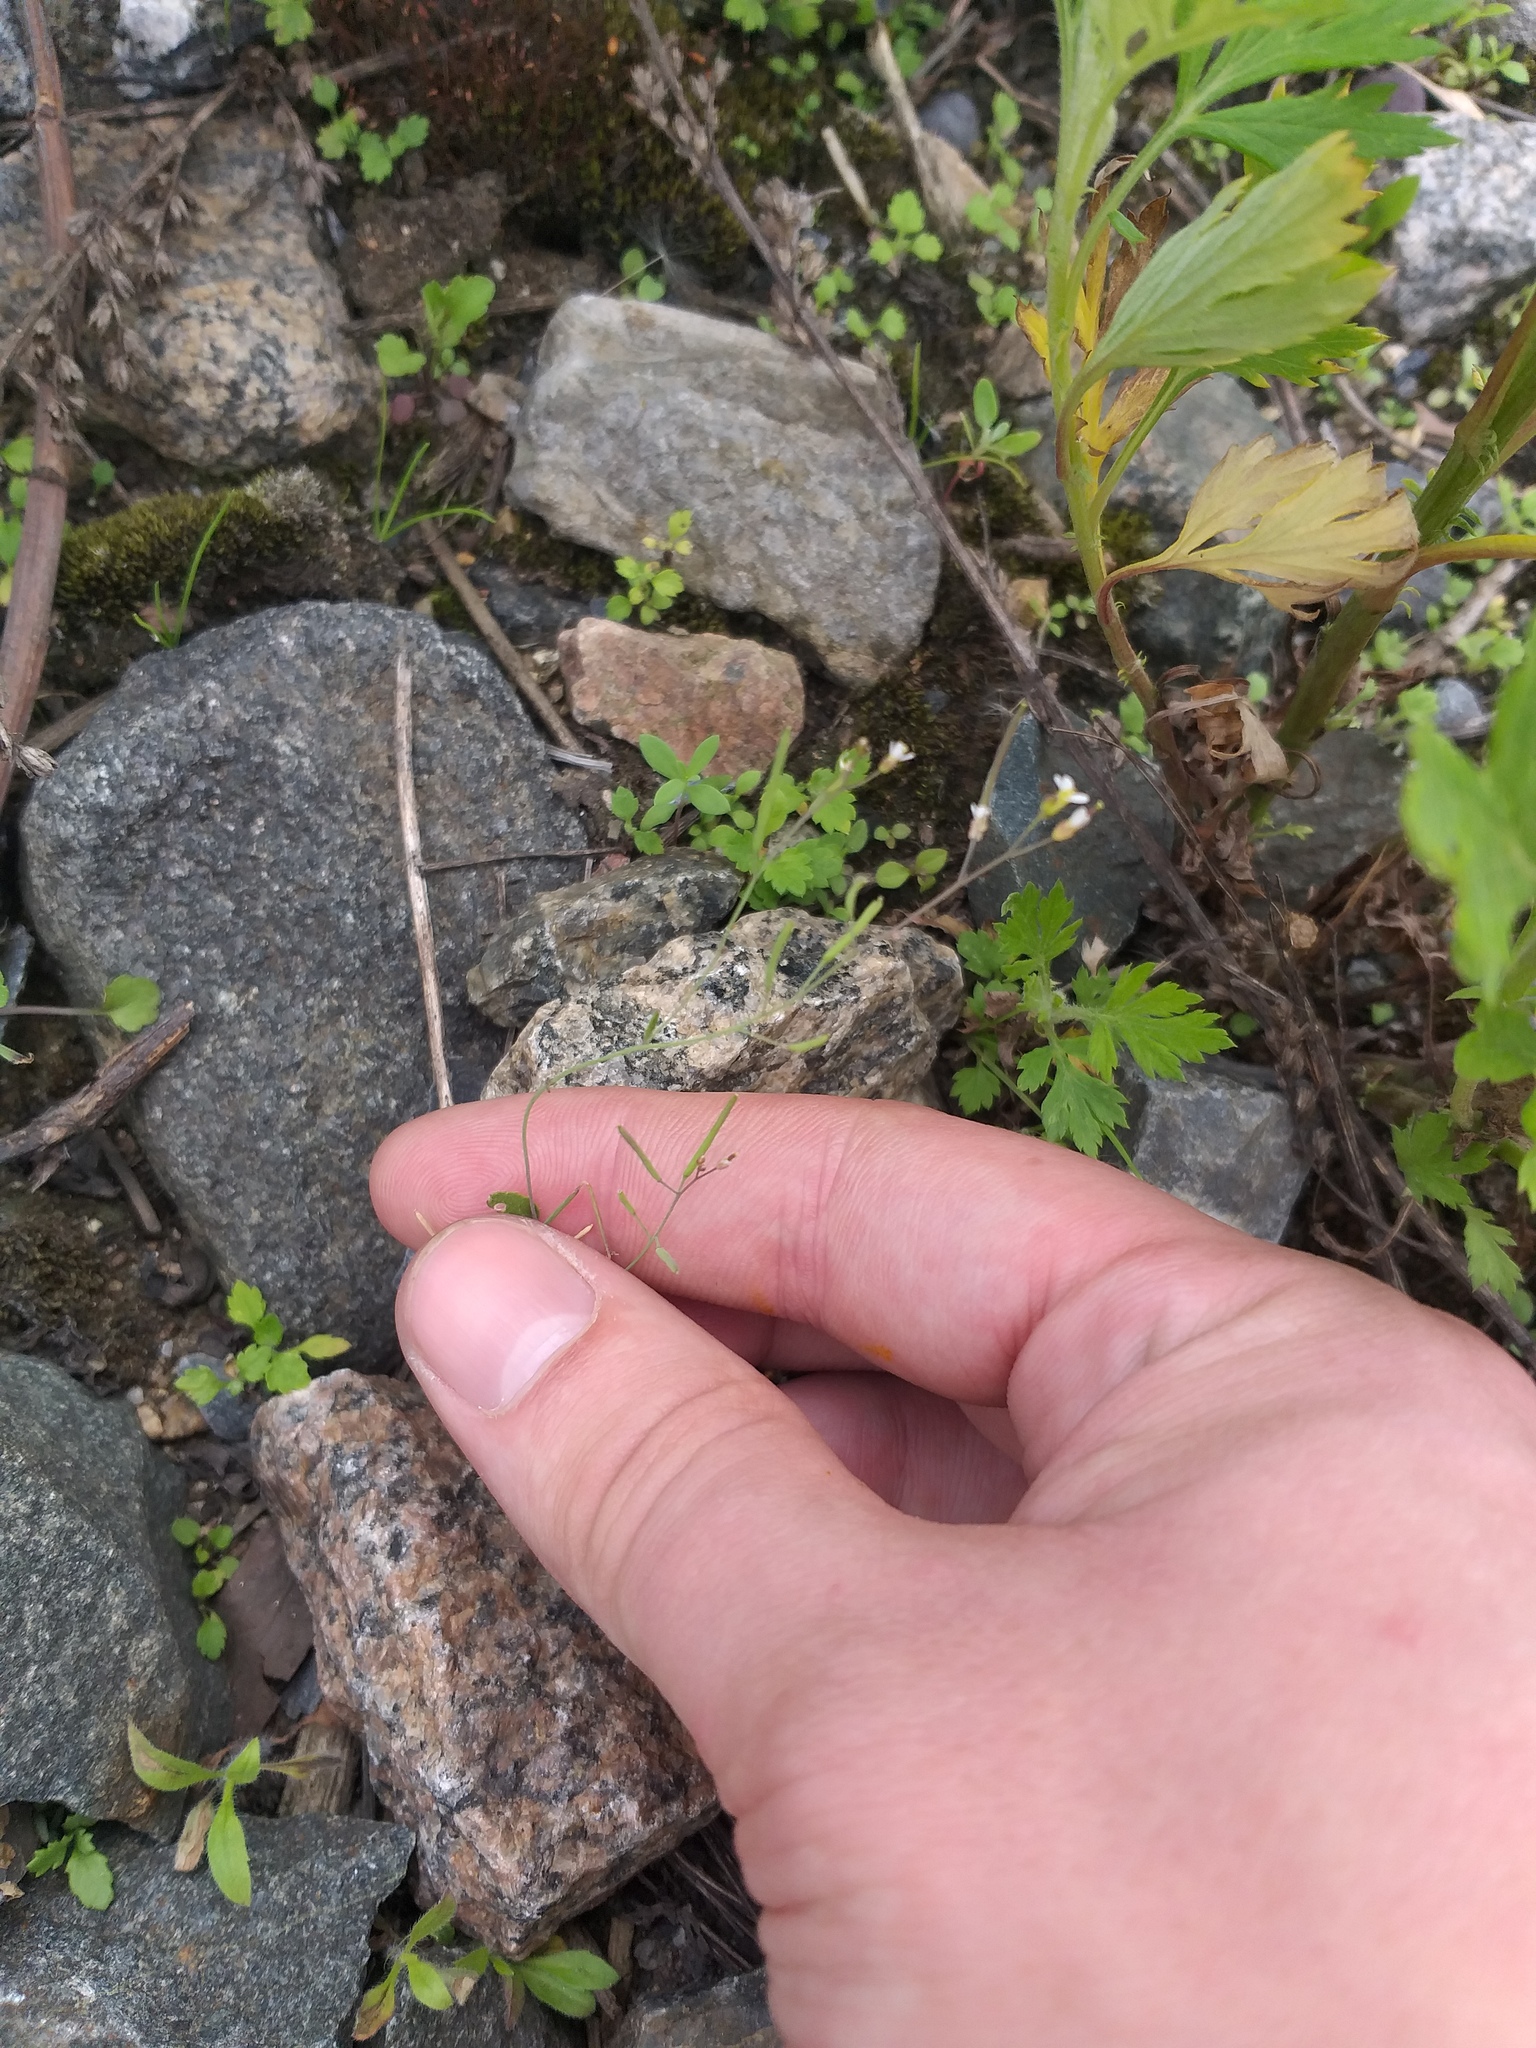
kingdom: Plantae
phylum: Tracheophyta
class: Magnoliopsida
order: Brassicales
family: Brassicaceae
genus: Arabidopsis
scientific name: Arabidopsis thaliana
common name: Thale cress
